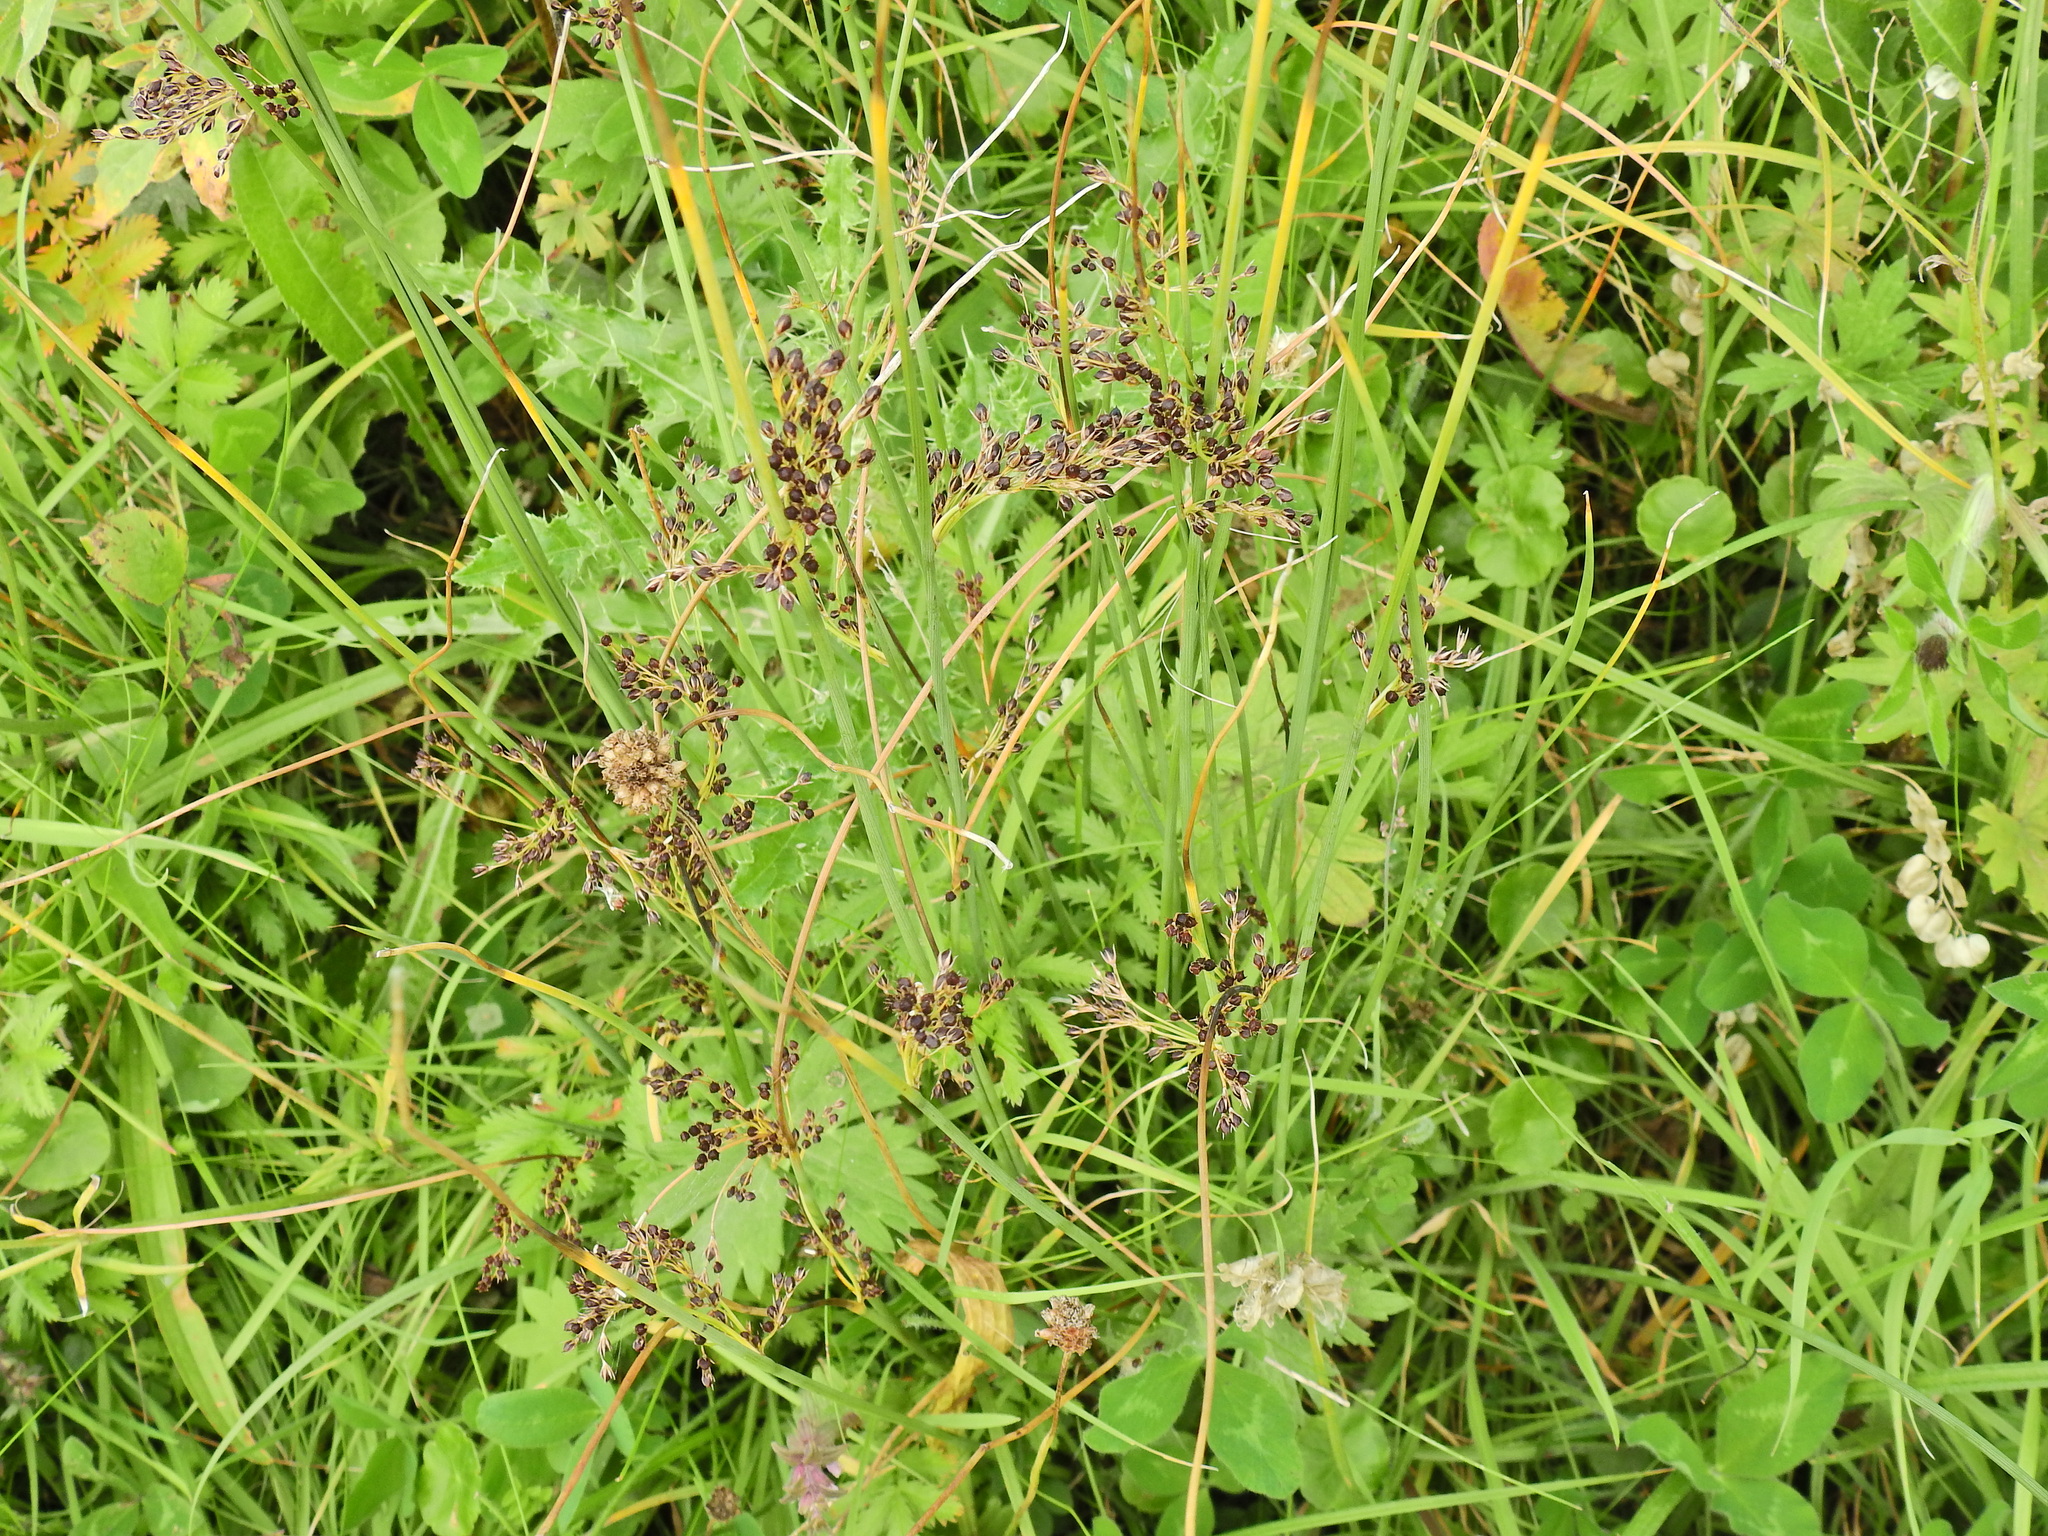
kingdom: Plantae
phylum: Tracheophyta
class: Liliopsida
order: Poales
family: Juncaceae
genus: Juncus
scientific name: Juncus inflexus
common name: Hard rush
